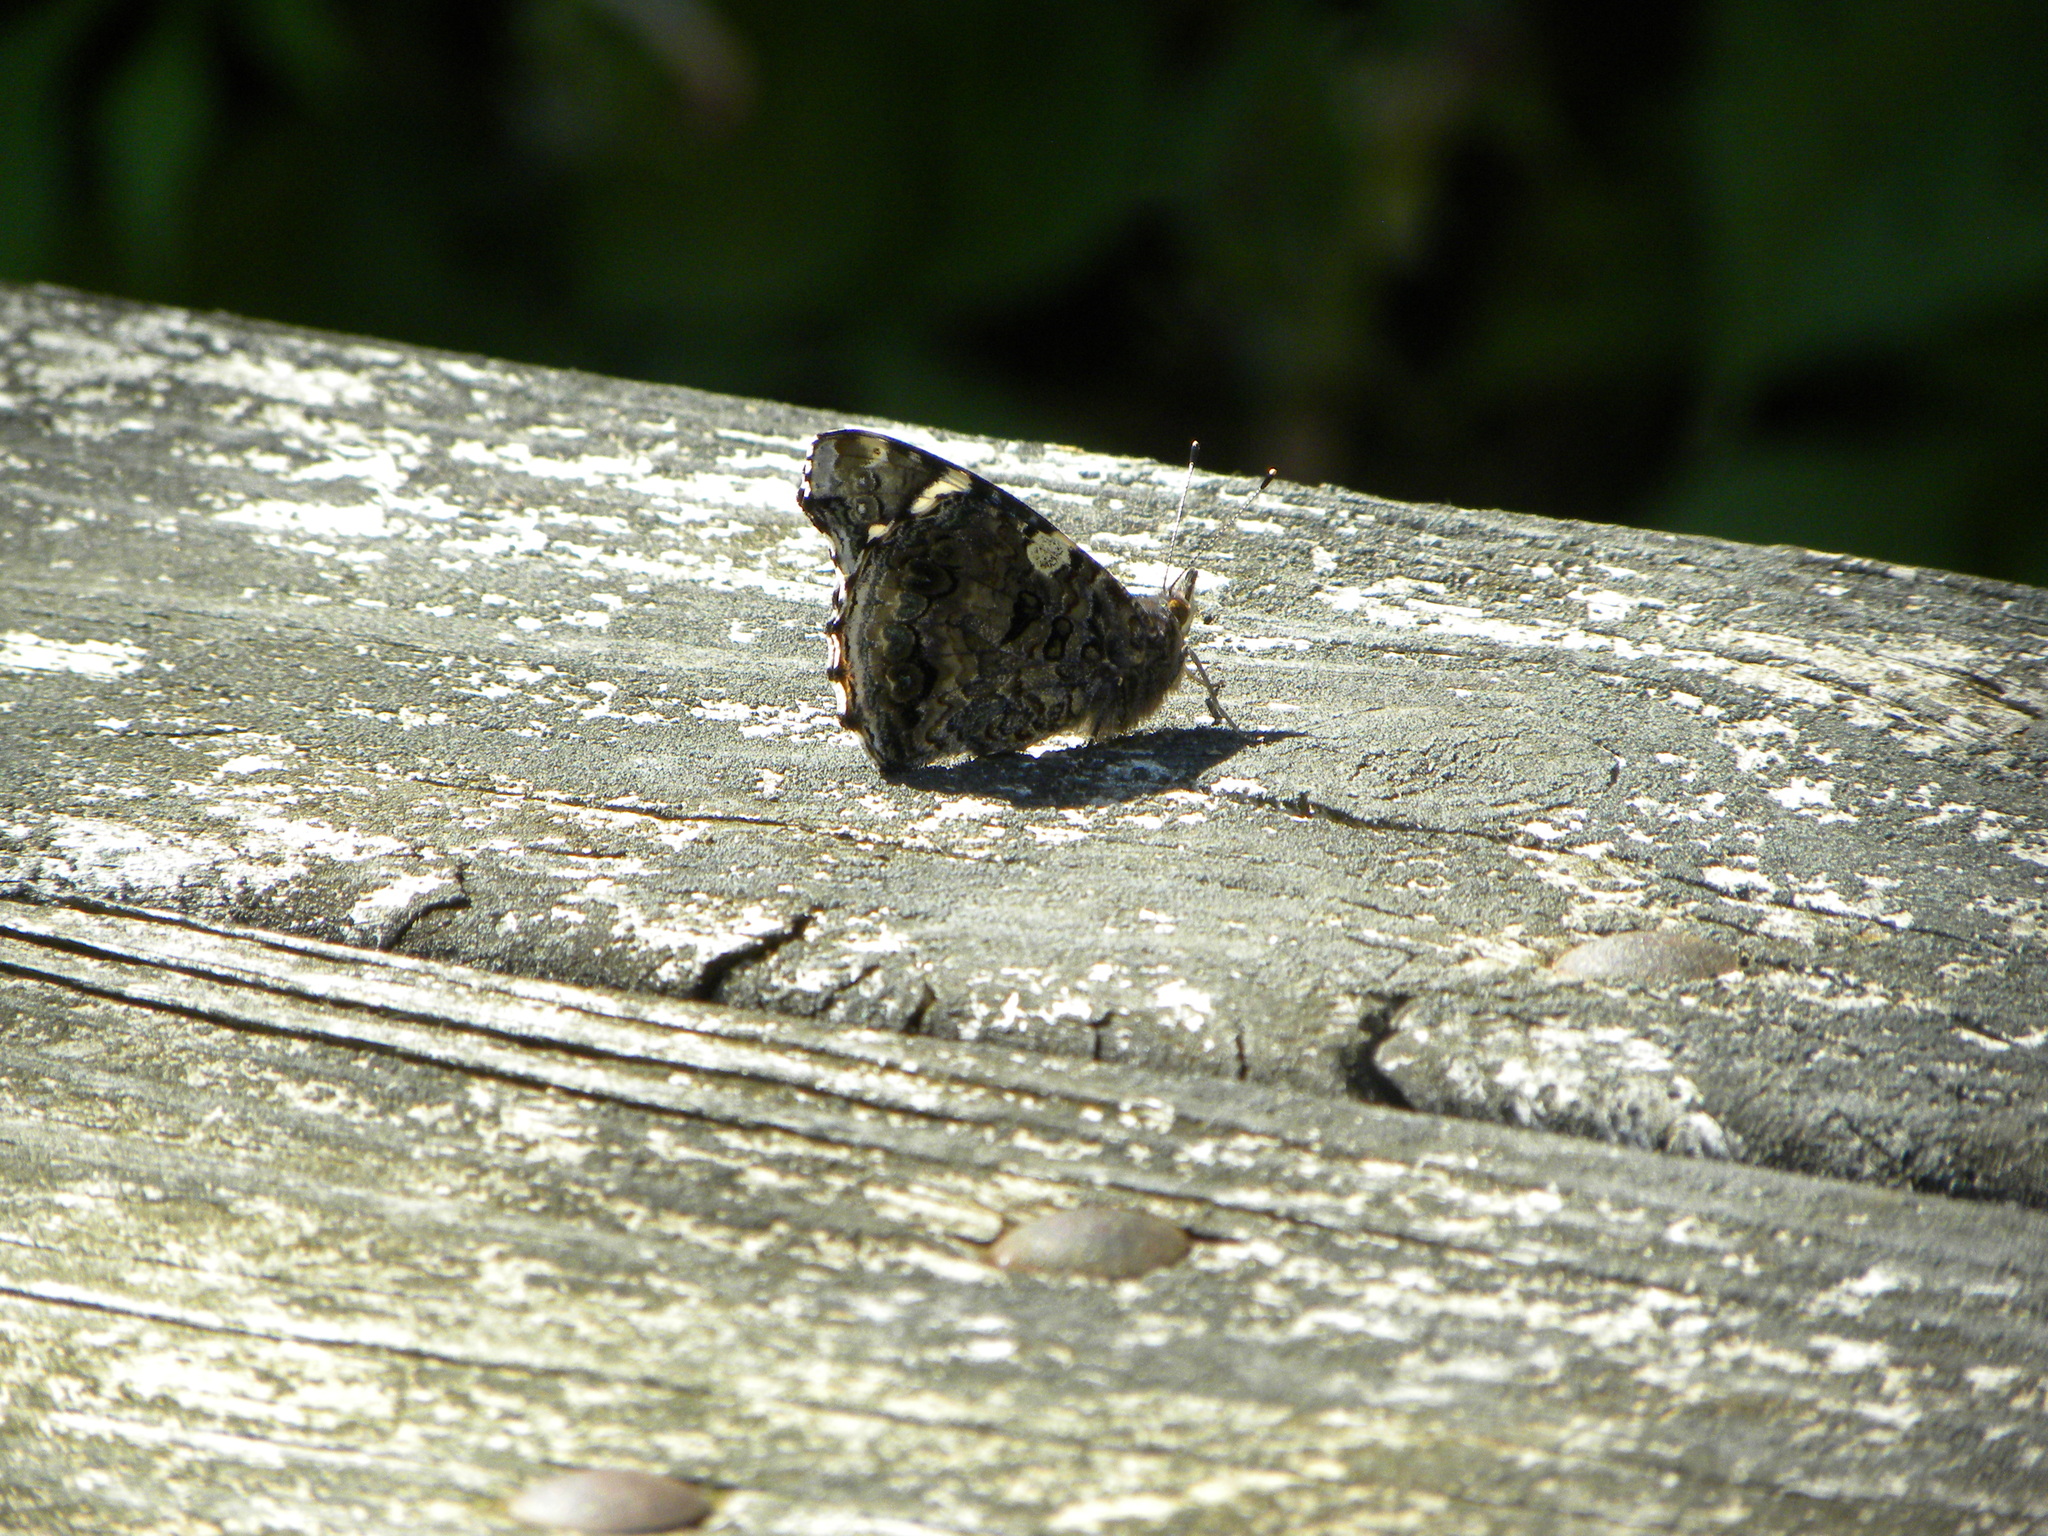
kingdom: Animalia
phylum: Arthropoda
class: Insecta
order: Lepidoptera
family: Nymphalidae
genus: Vanessa
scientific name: Vanessa atalanta
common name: Red admiral
